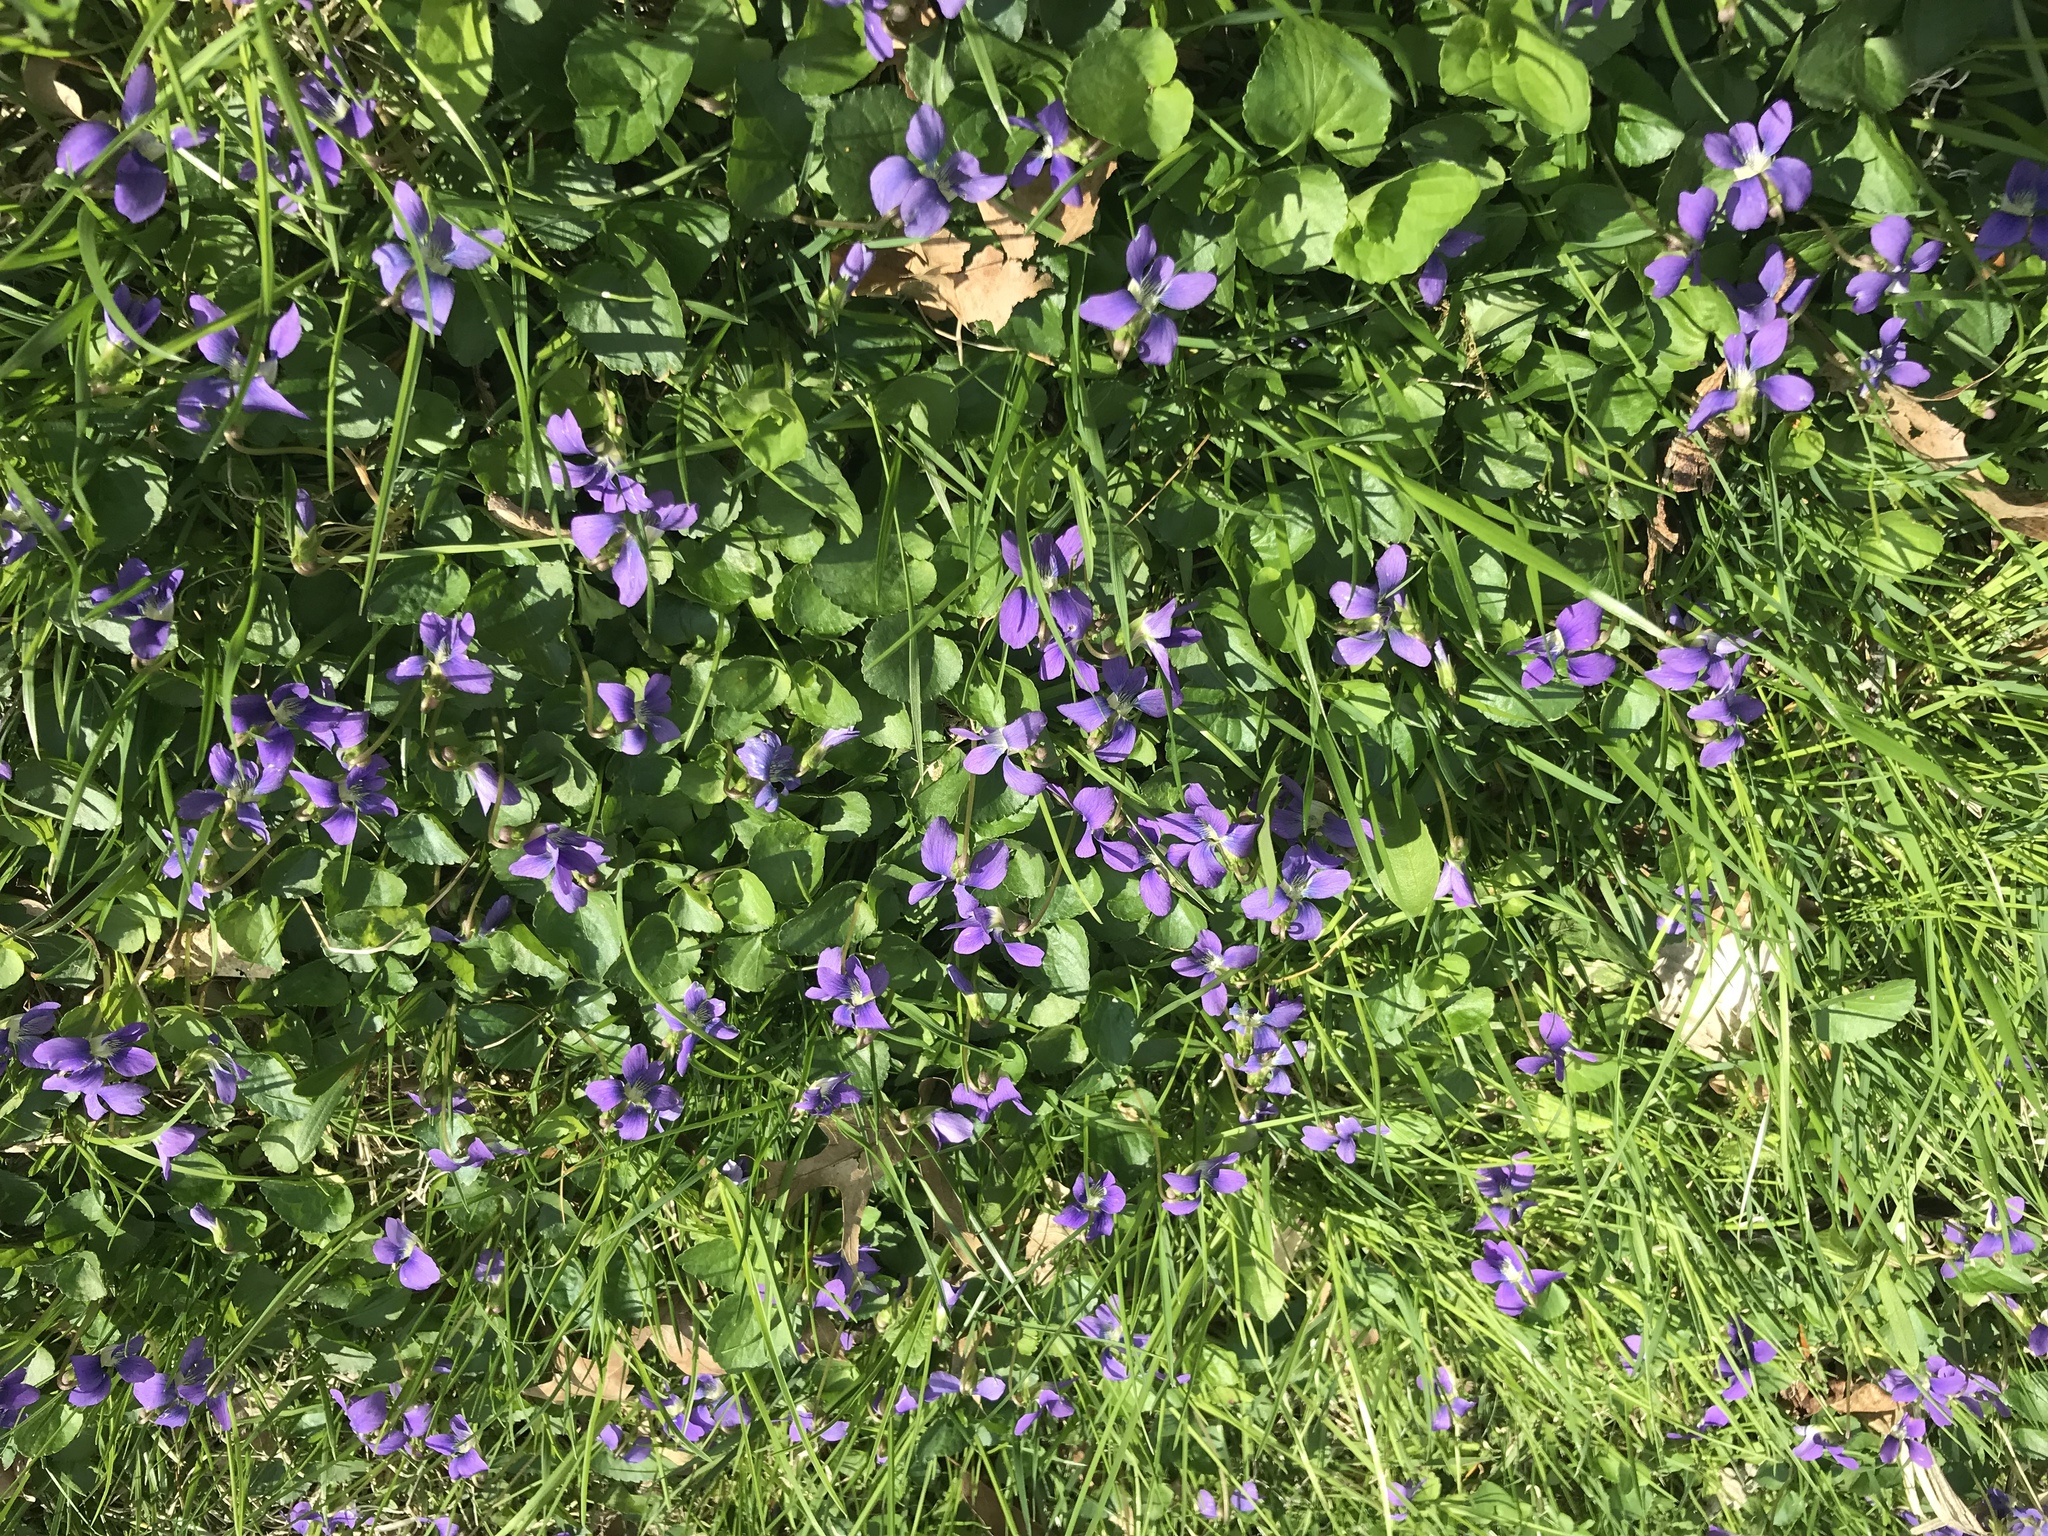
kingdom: Plantae
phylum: Tracheophyta
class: Magnoliopsida
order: Malpighiales
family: Violaceae
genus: Viola
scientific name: Viola sororia
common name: Dooryard violet
